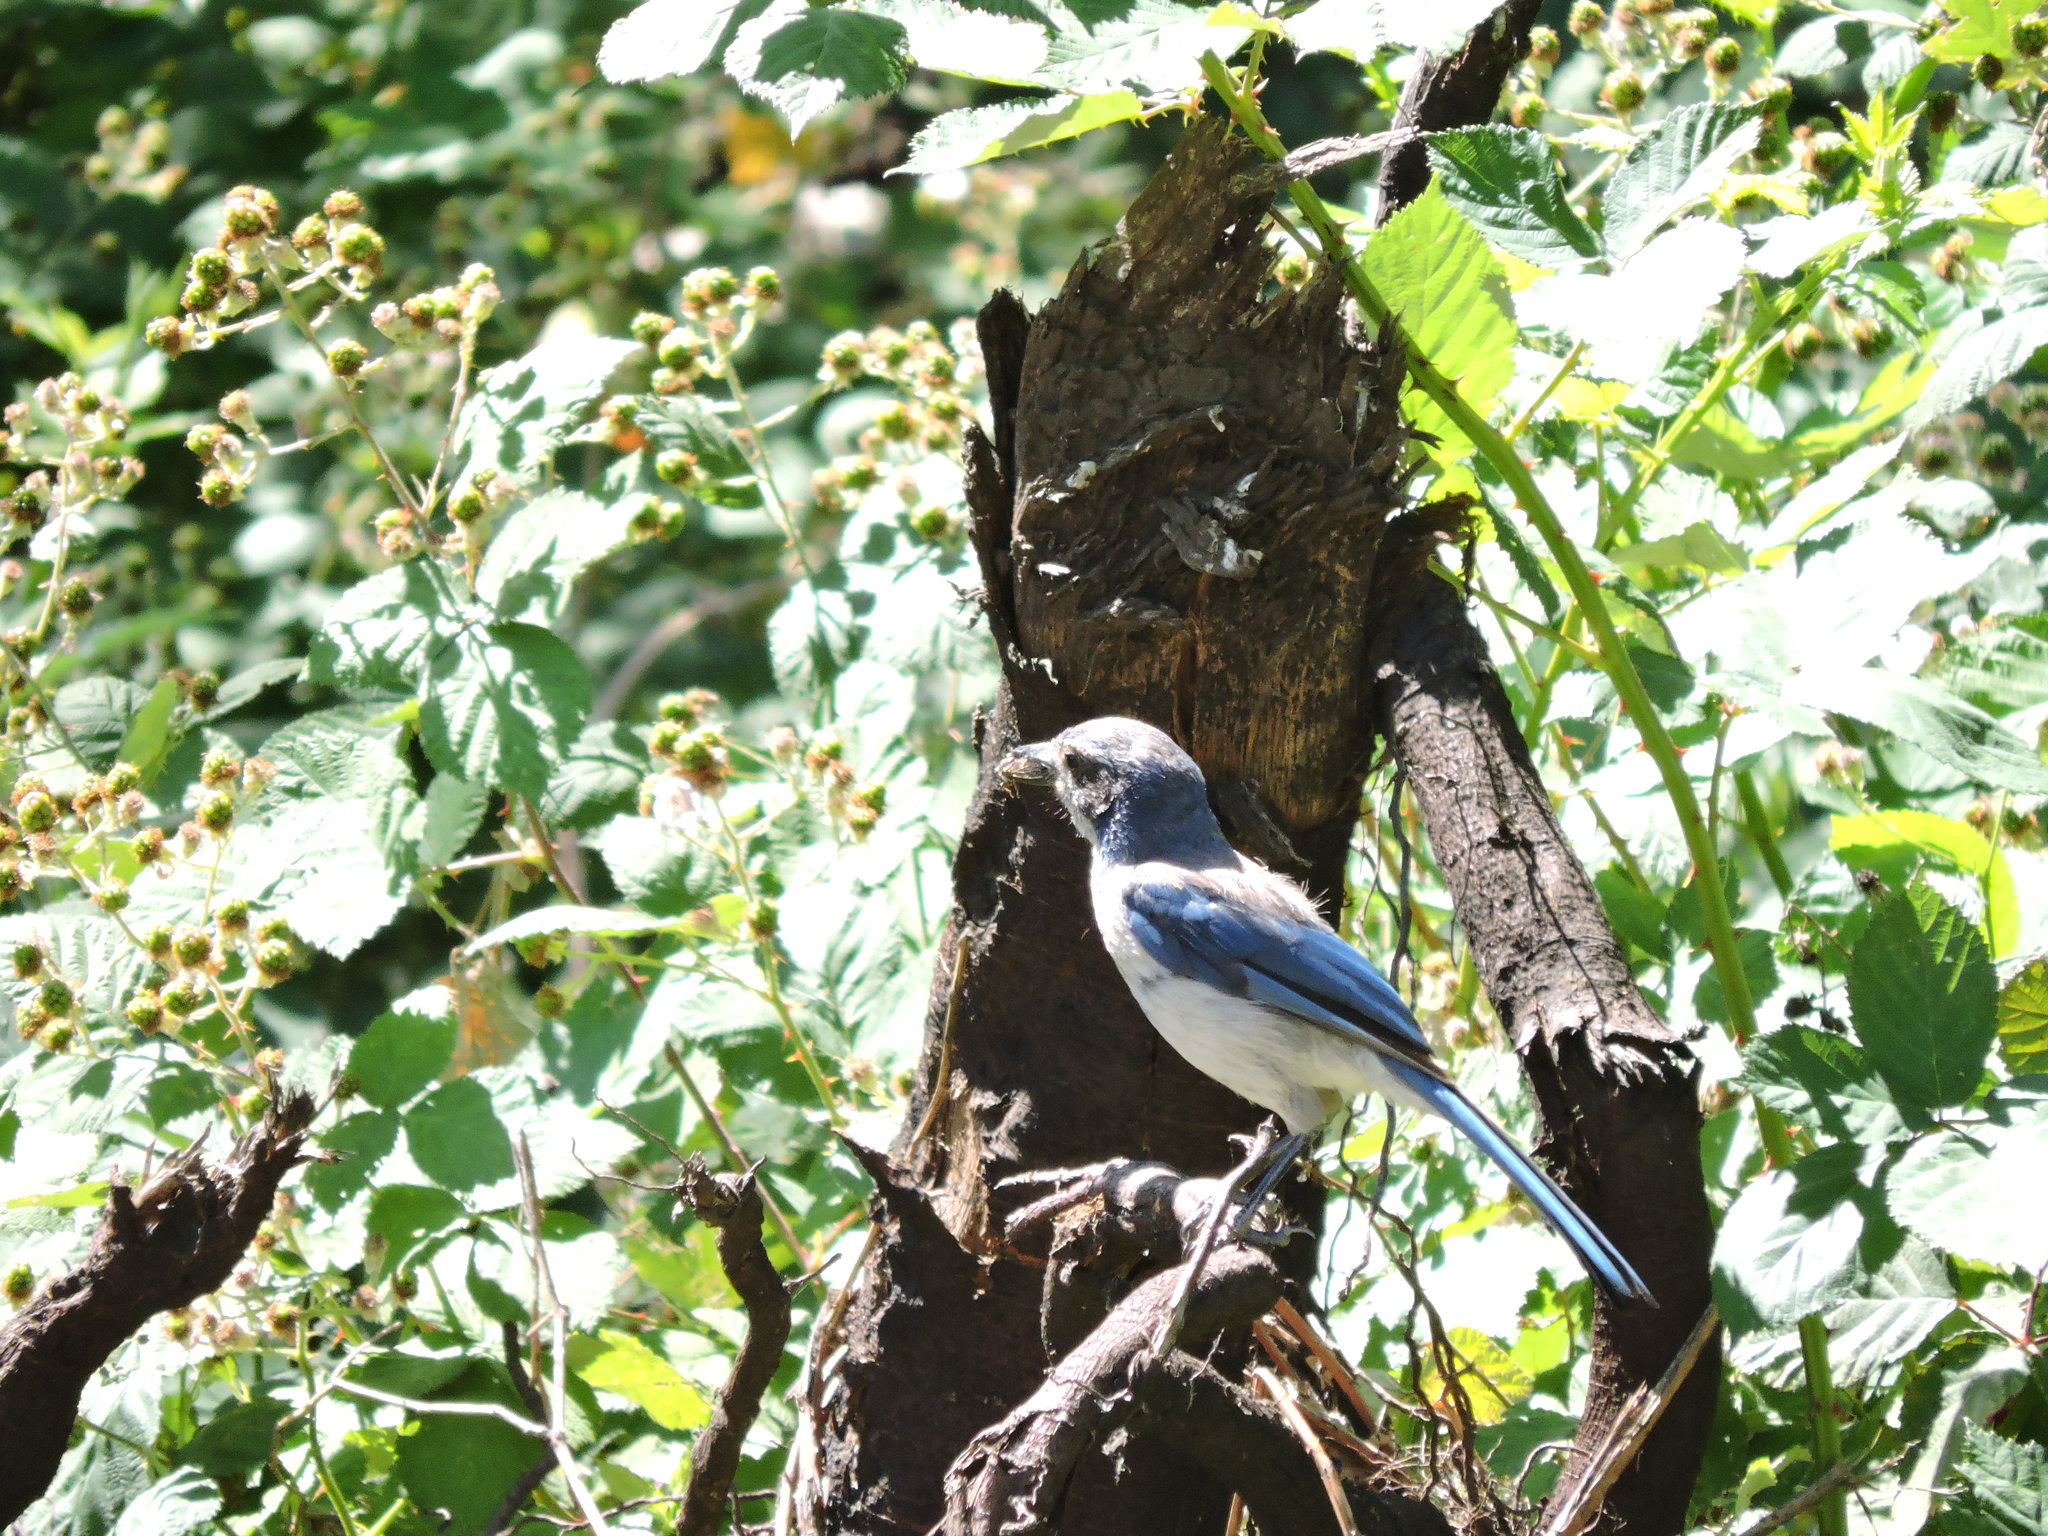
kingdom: Animalia
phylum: Chordata
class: Aves
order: Passeriformes
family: Corvidae
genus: Aphelocoma
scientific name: Aphelocoma californica
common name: California scrub-jay
